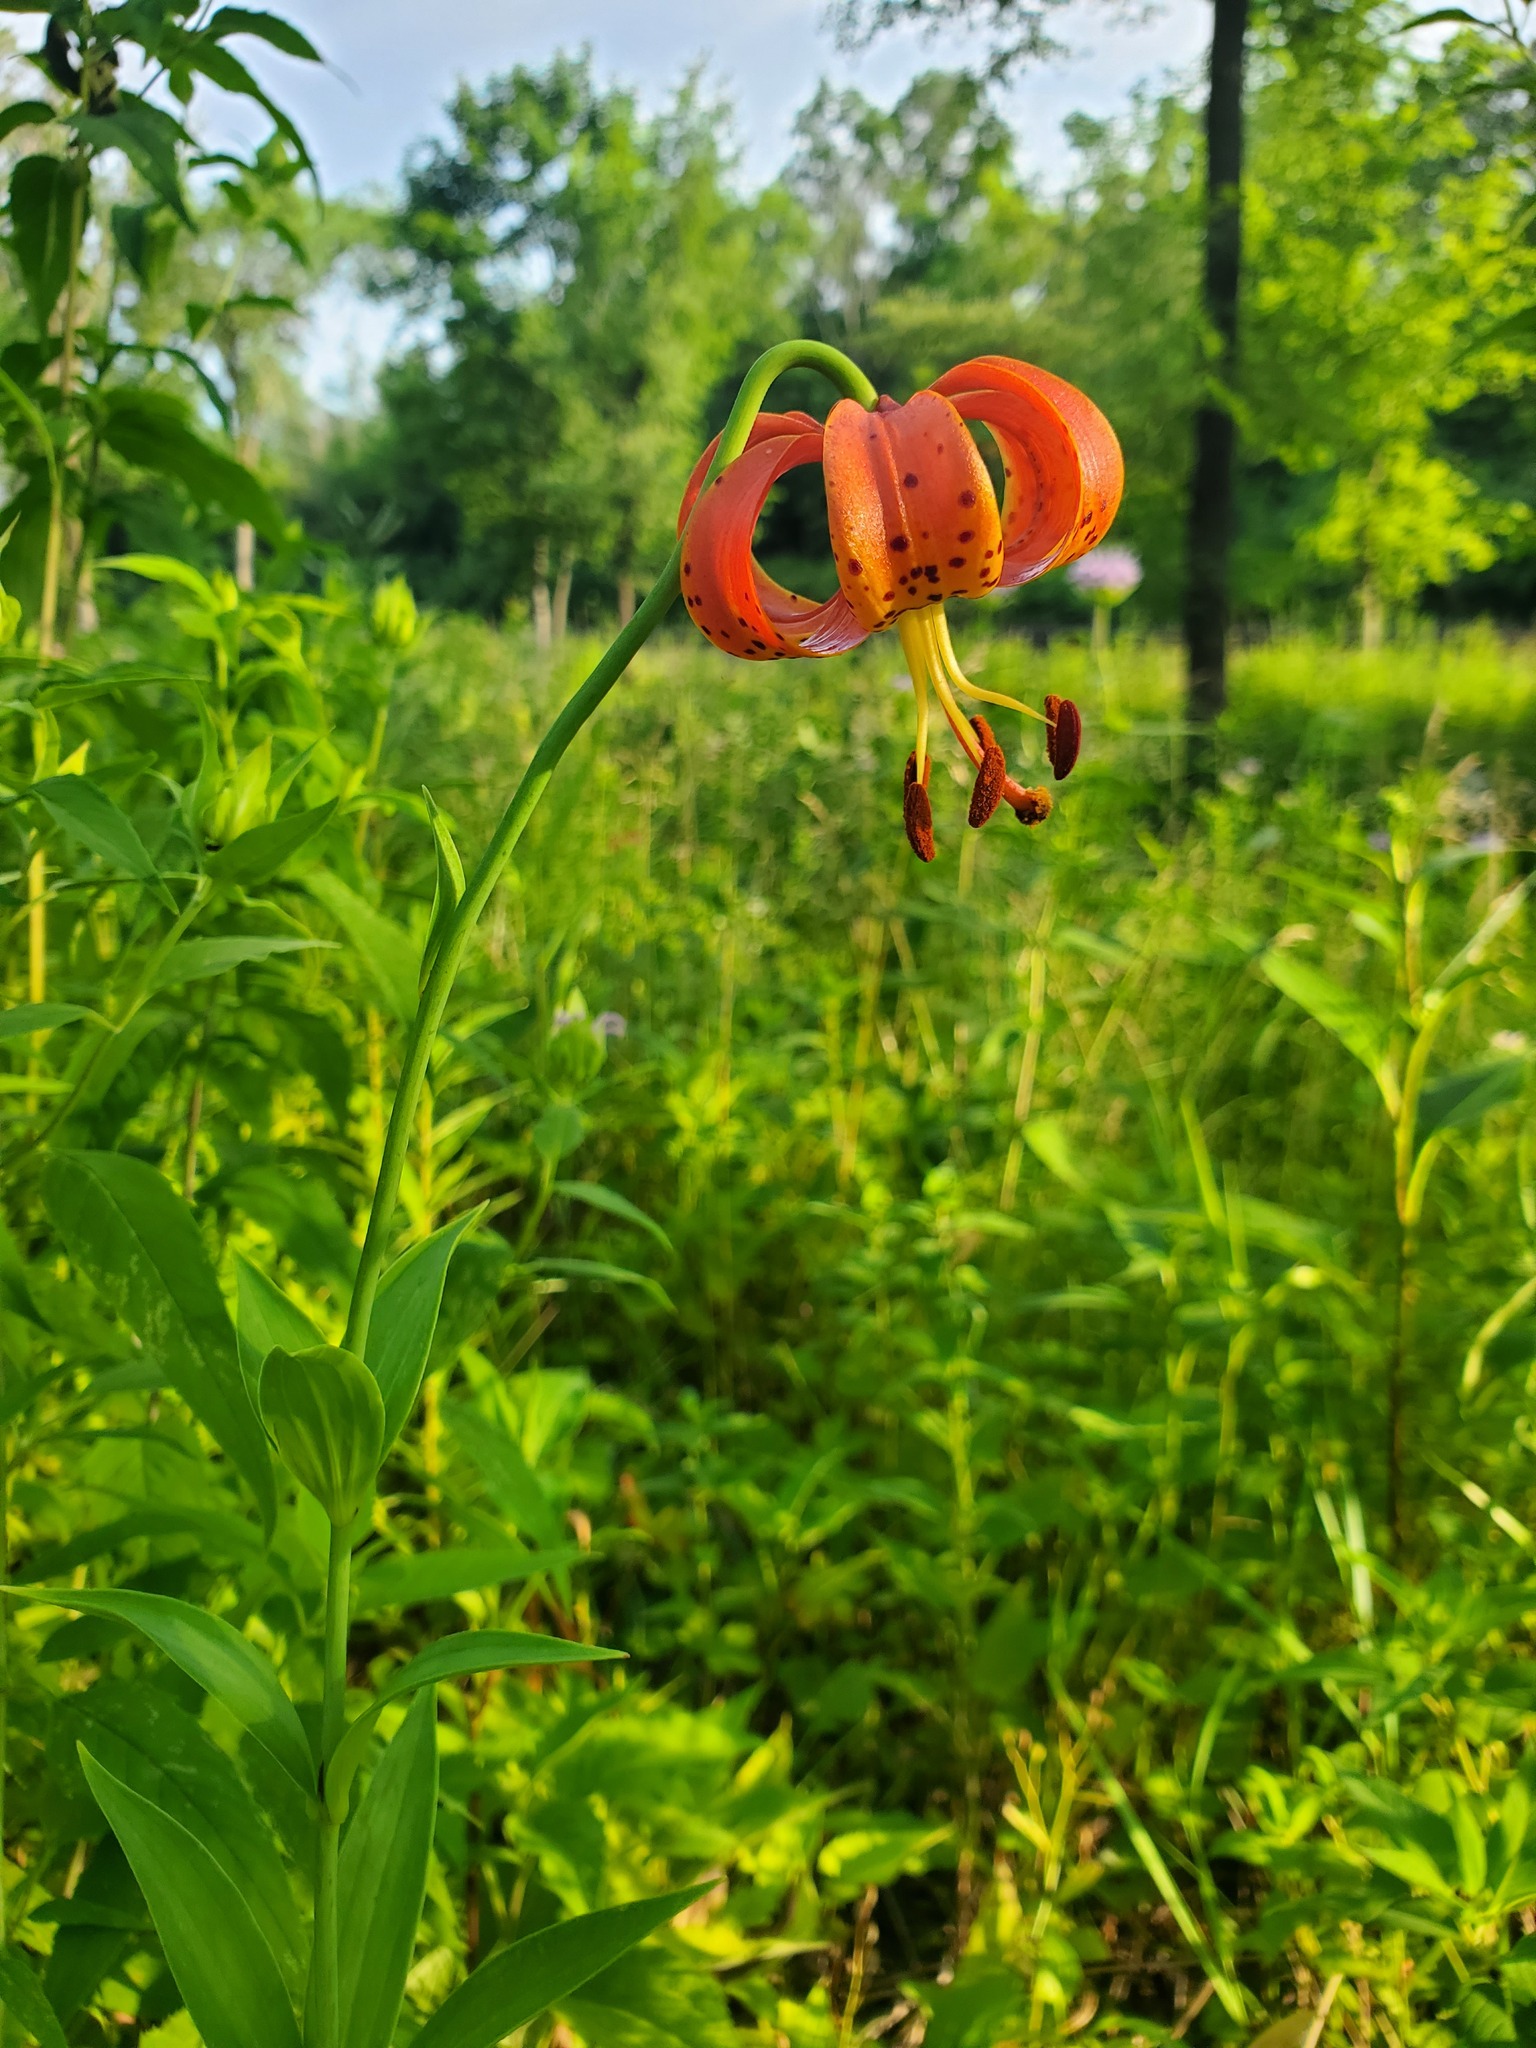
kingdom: Plantae
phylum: Tracheophyta
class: Liliopsida
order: Liliales
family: Liliaceae
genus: Lilium
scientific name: Lilium michiganense
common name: Michigan lily
